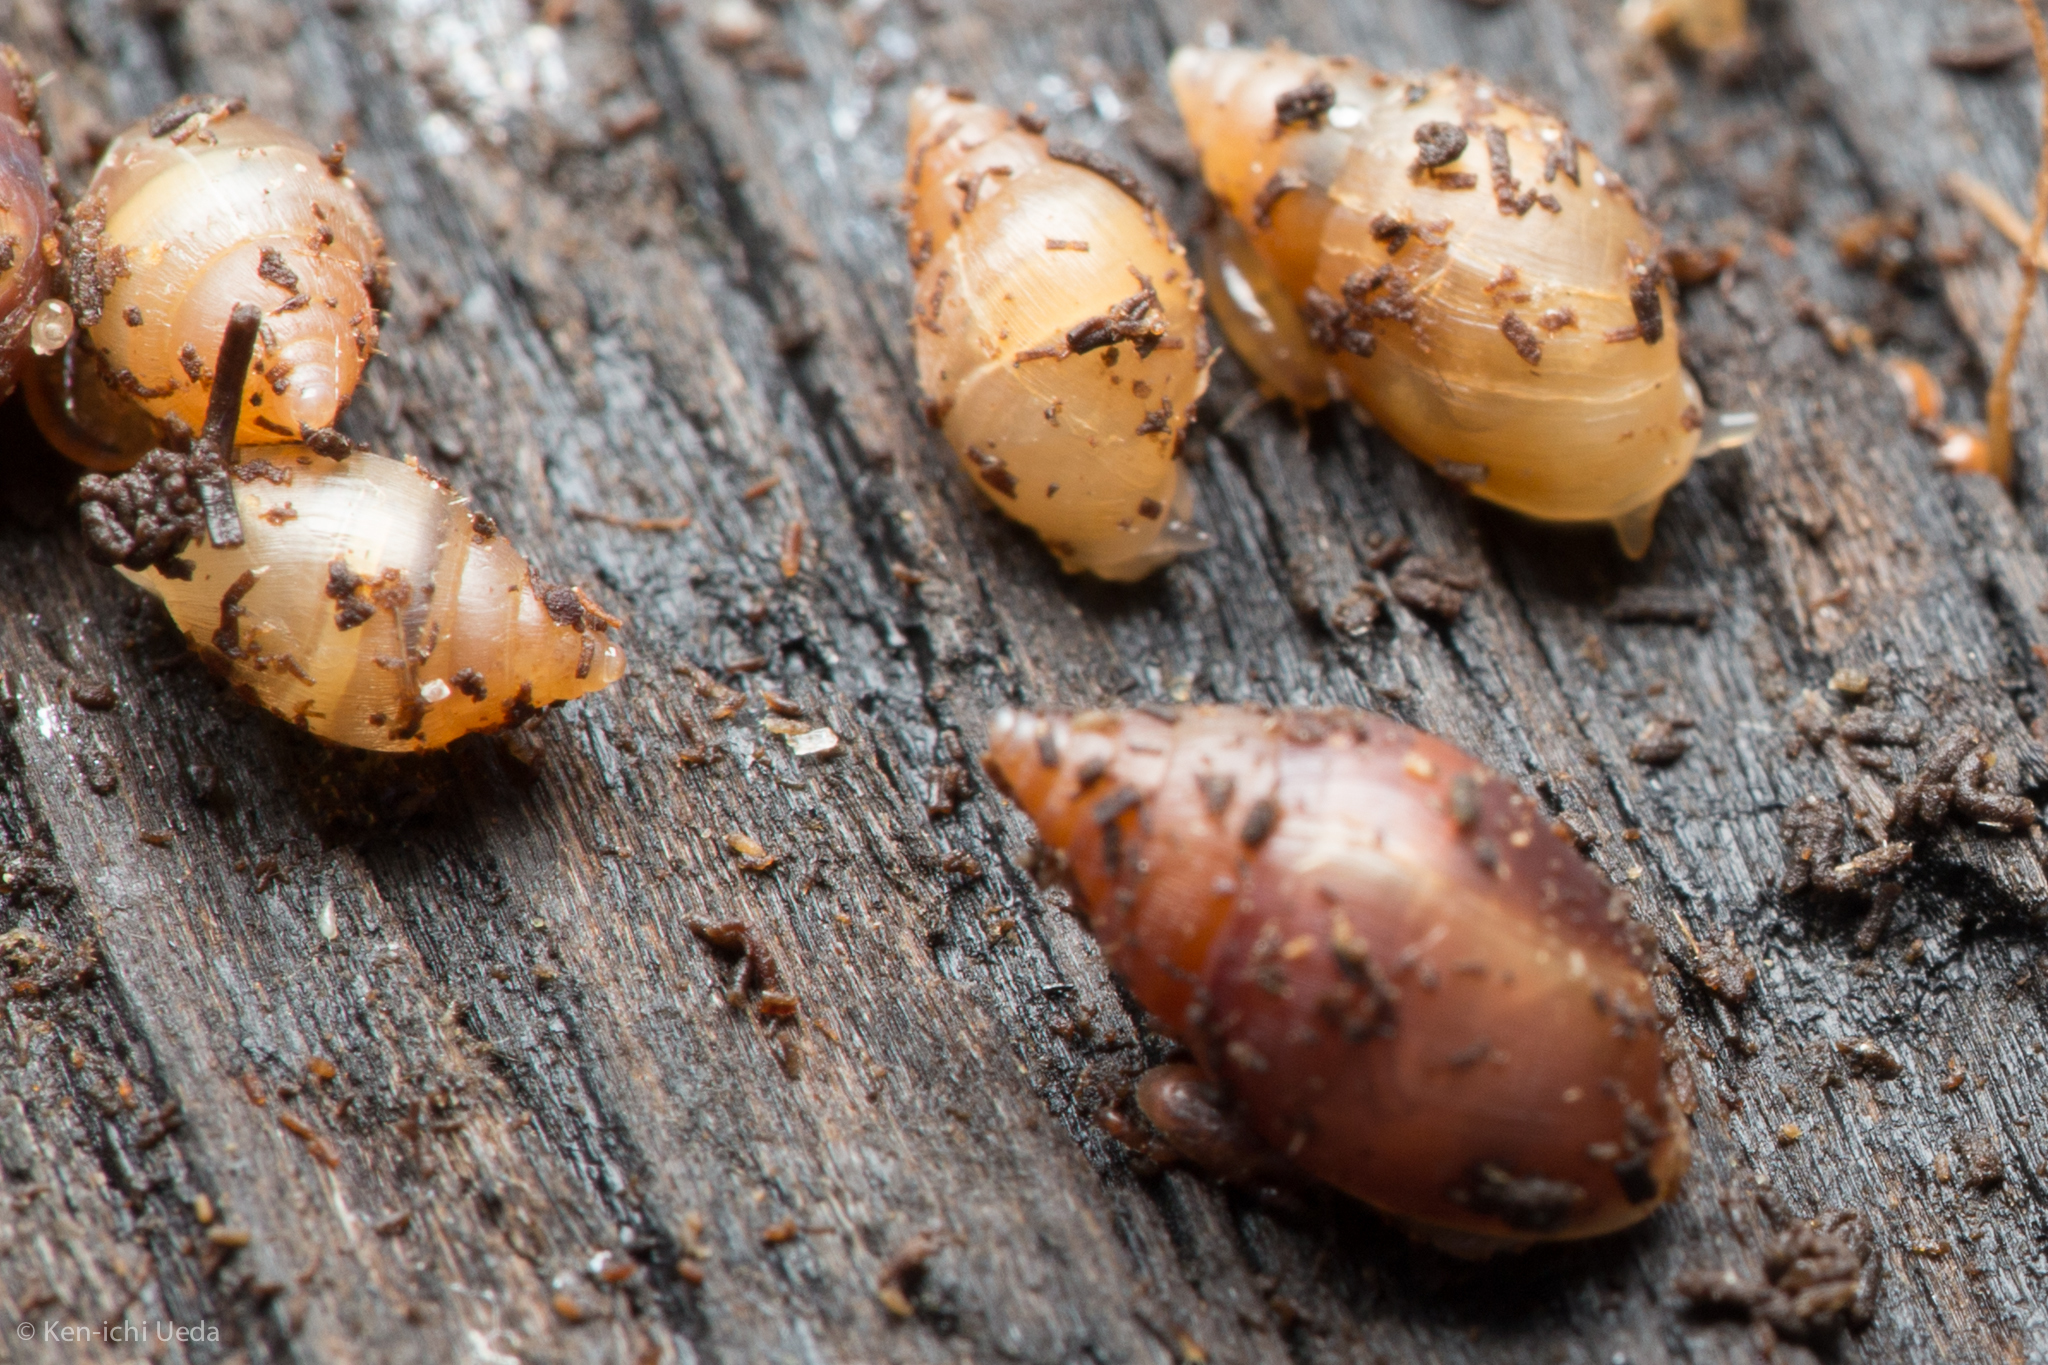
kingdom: Animalia
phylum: Mollusca
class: Gastropoda
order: Ellobiida
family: Ellobiidae
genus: Myosotella
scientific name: Myosotella myosotis
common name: Mouse-eared snail
